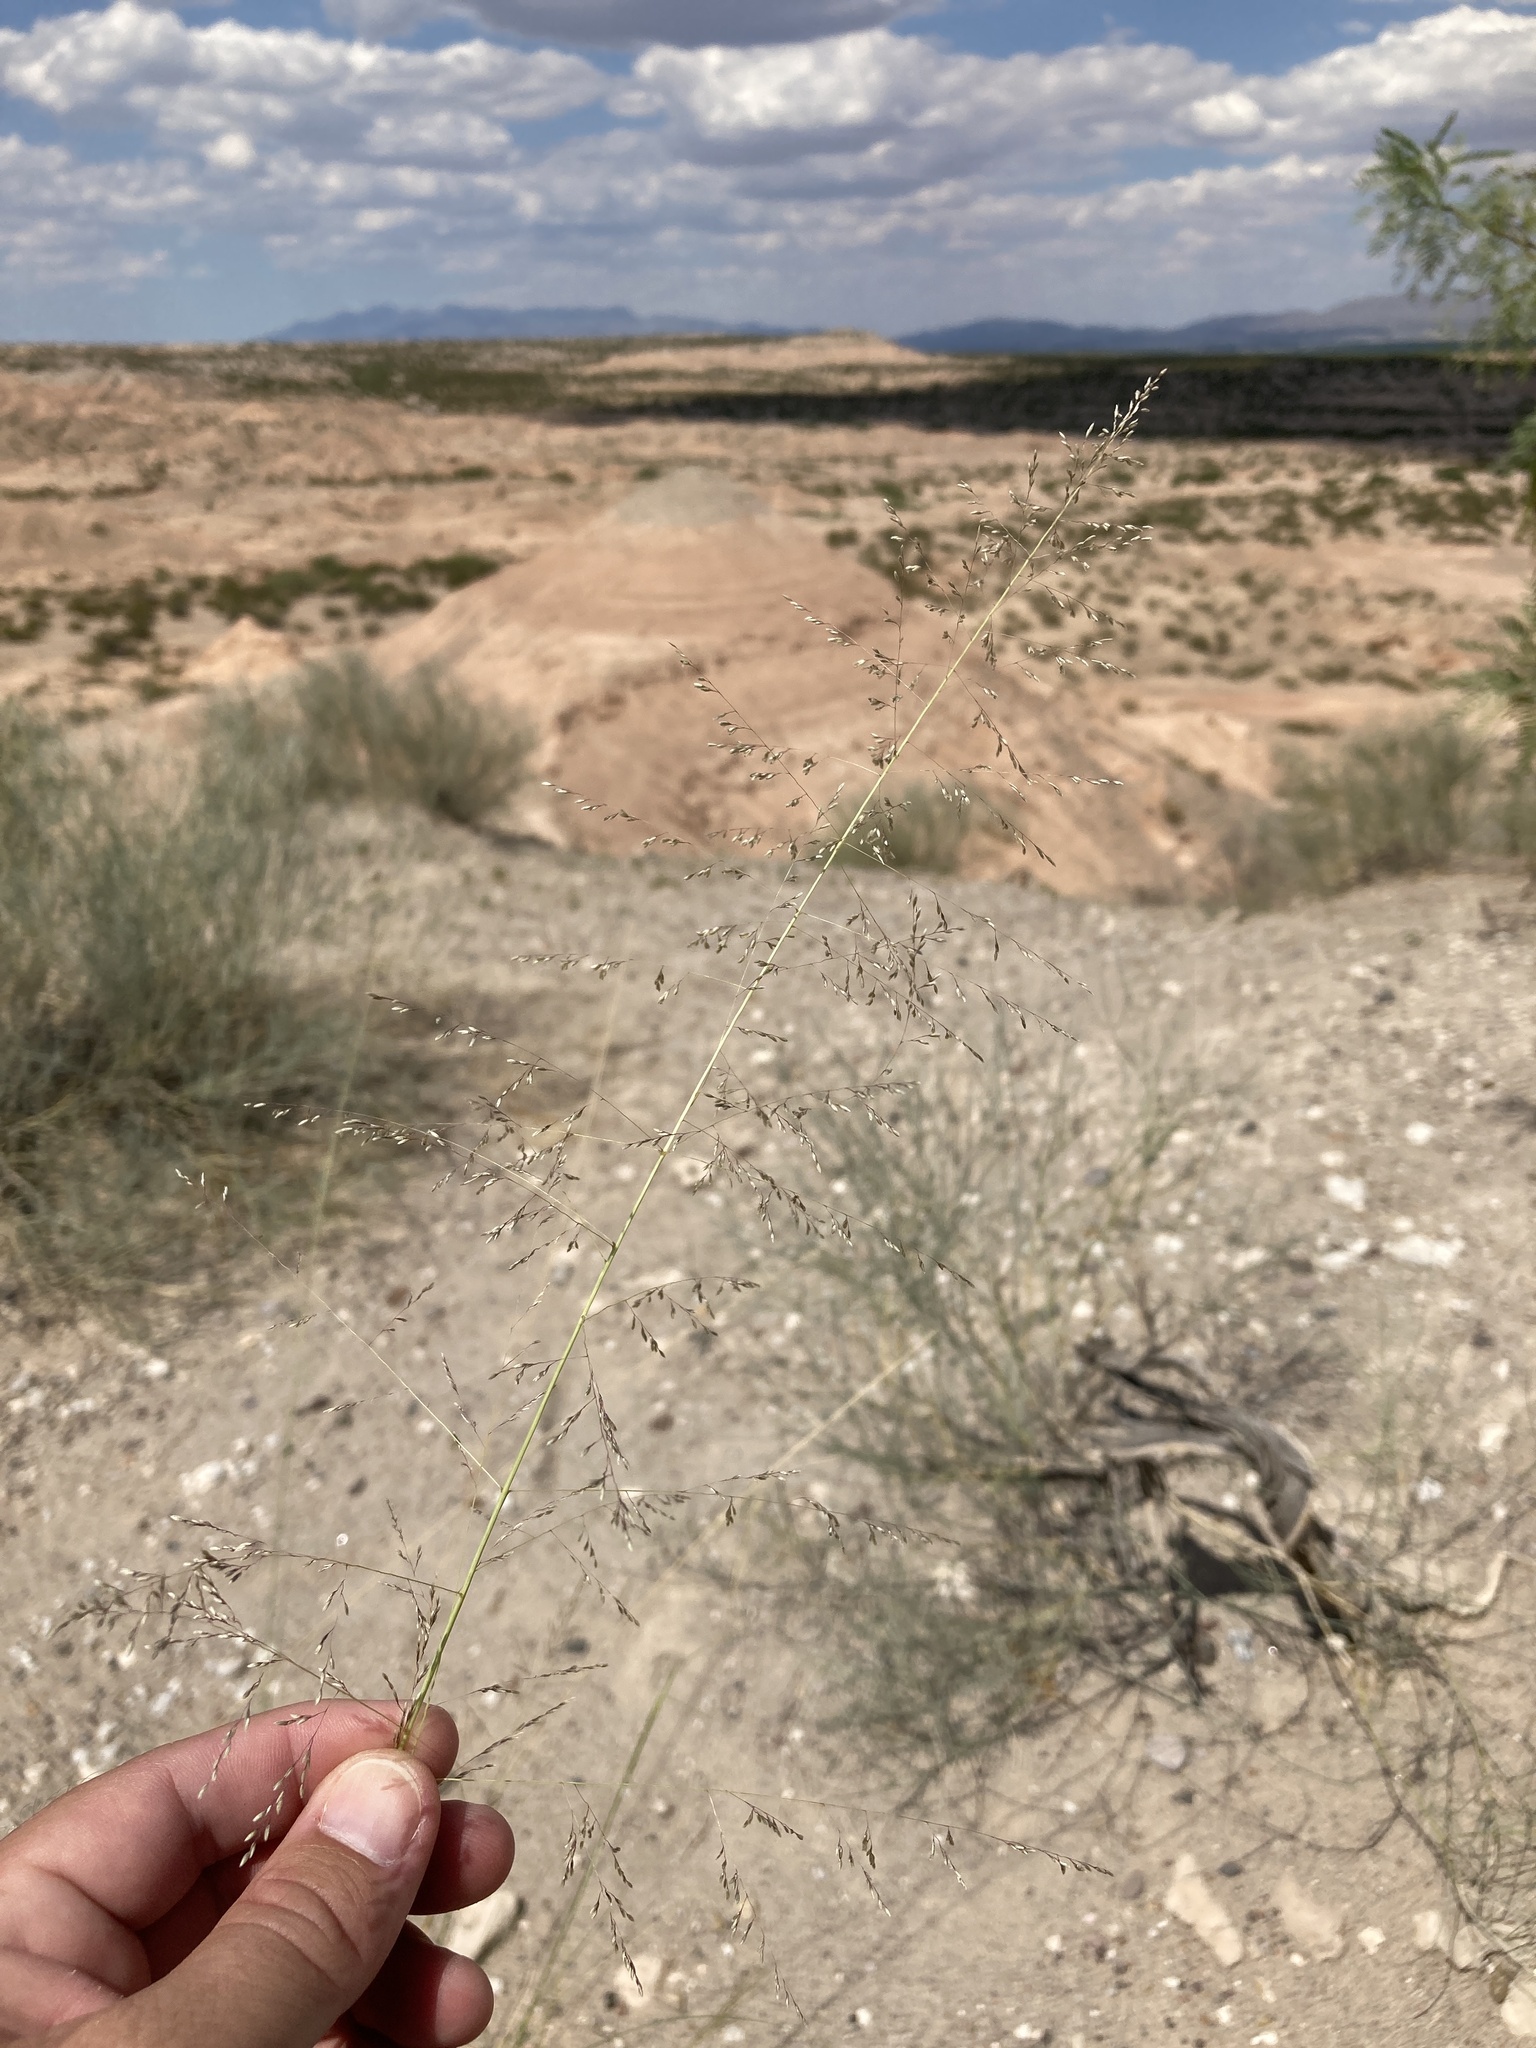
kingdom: Plantae
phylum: Tracheophyta
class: Liliopsida
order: Poales
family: Poaceae
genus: Sporobolus
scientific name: Sporobolus airoides
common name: Alkali sacaton
